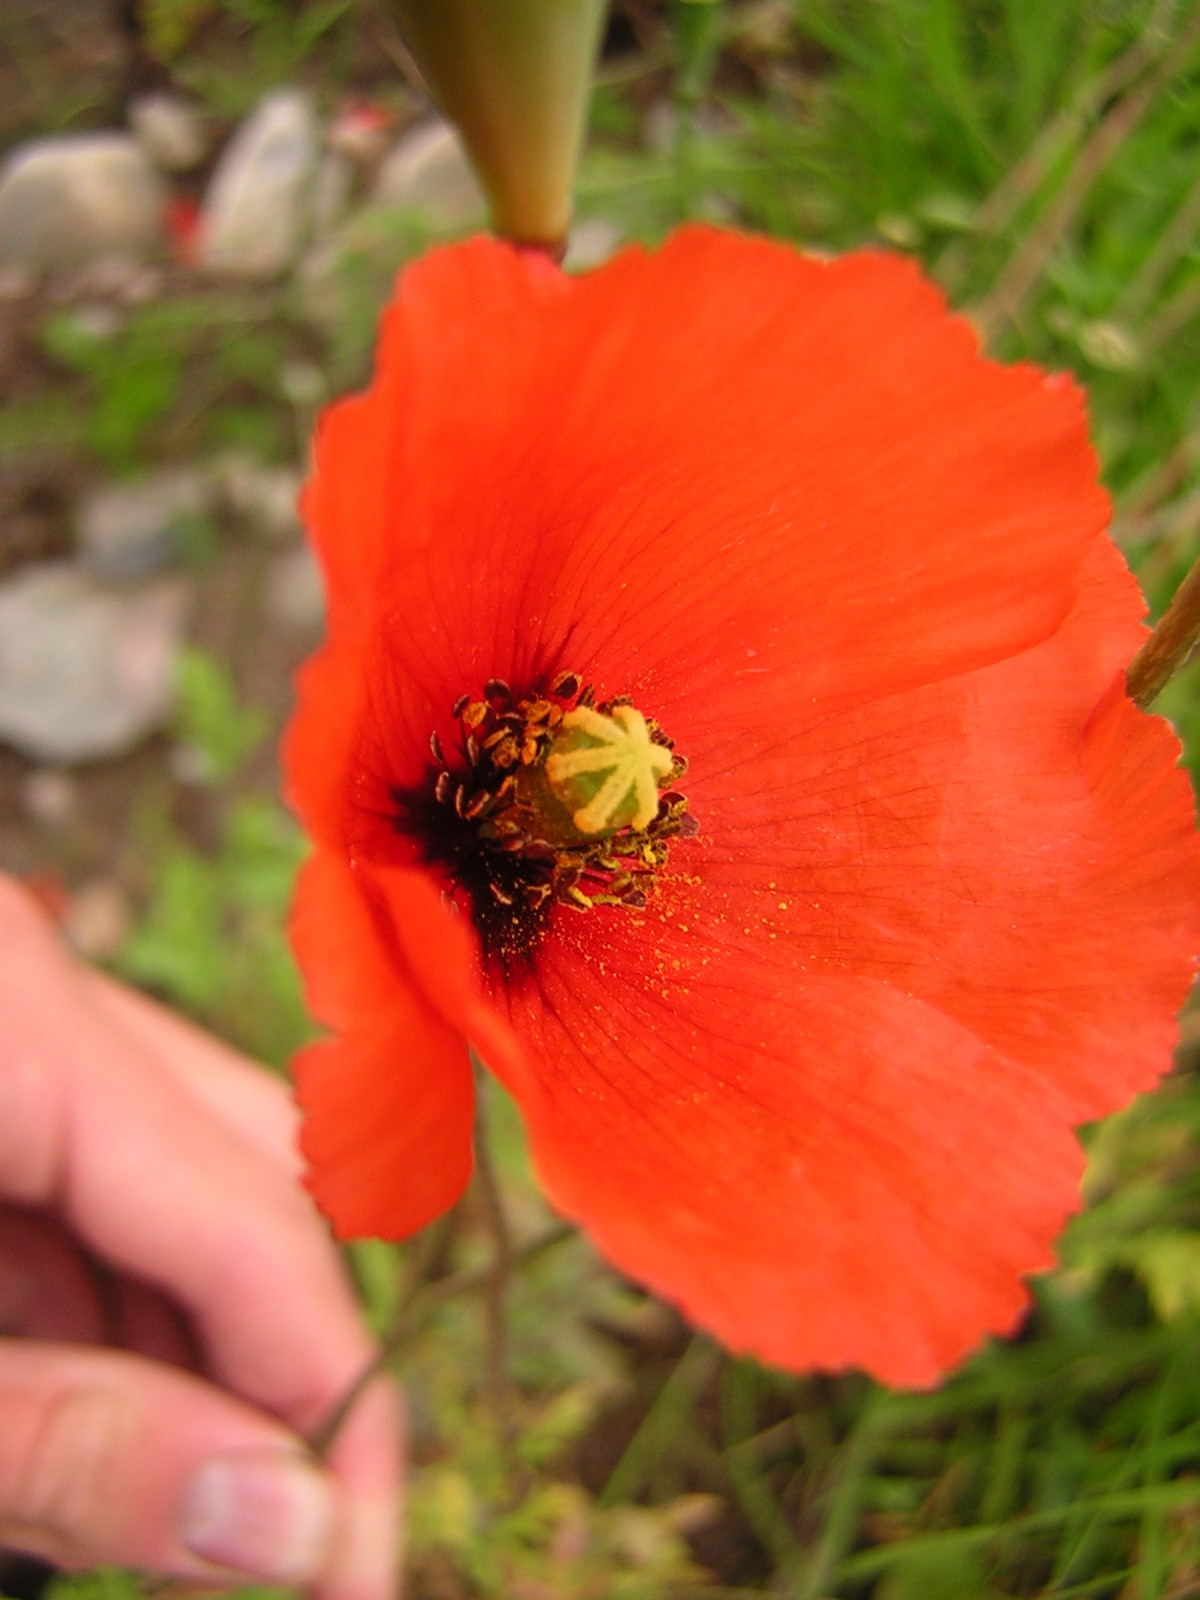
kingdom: Plantae
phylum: Tracheophyta
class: Magnoliopsida
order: Ranunculales
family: Papaveraceae
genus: Papaver
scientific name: Papaver dubium
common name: Long-headed poppy
